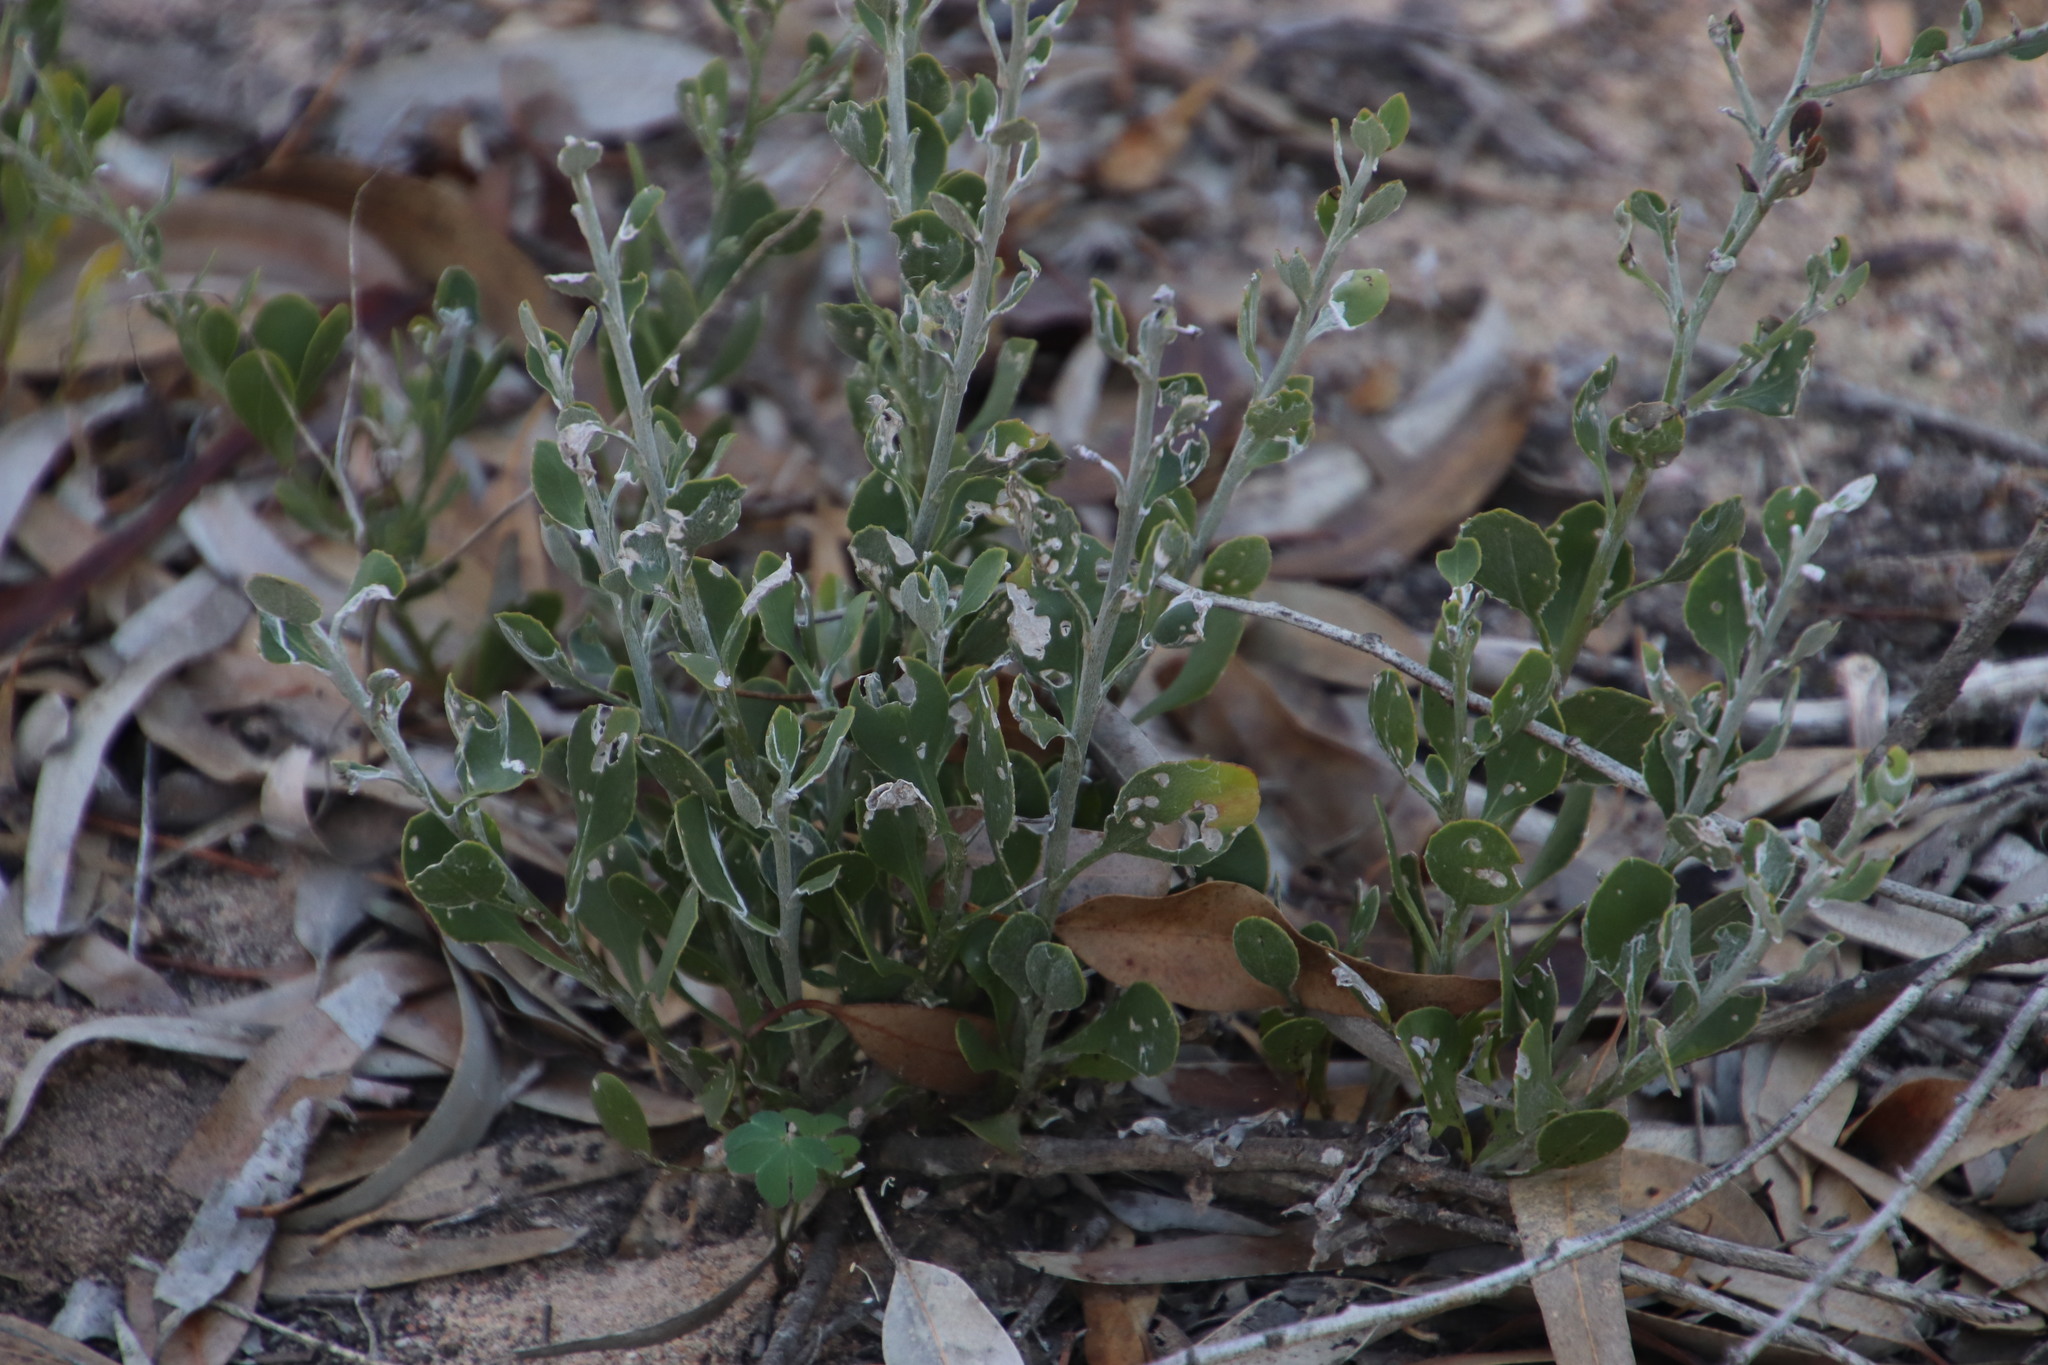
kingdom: Plantae
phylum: Tracheophyta
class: Magnoliopsida
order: Asterales
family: Asteraceae
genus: Osteospermum
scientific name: Osteospermum incanum
